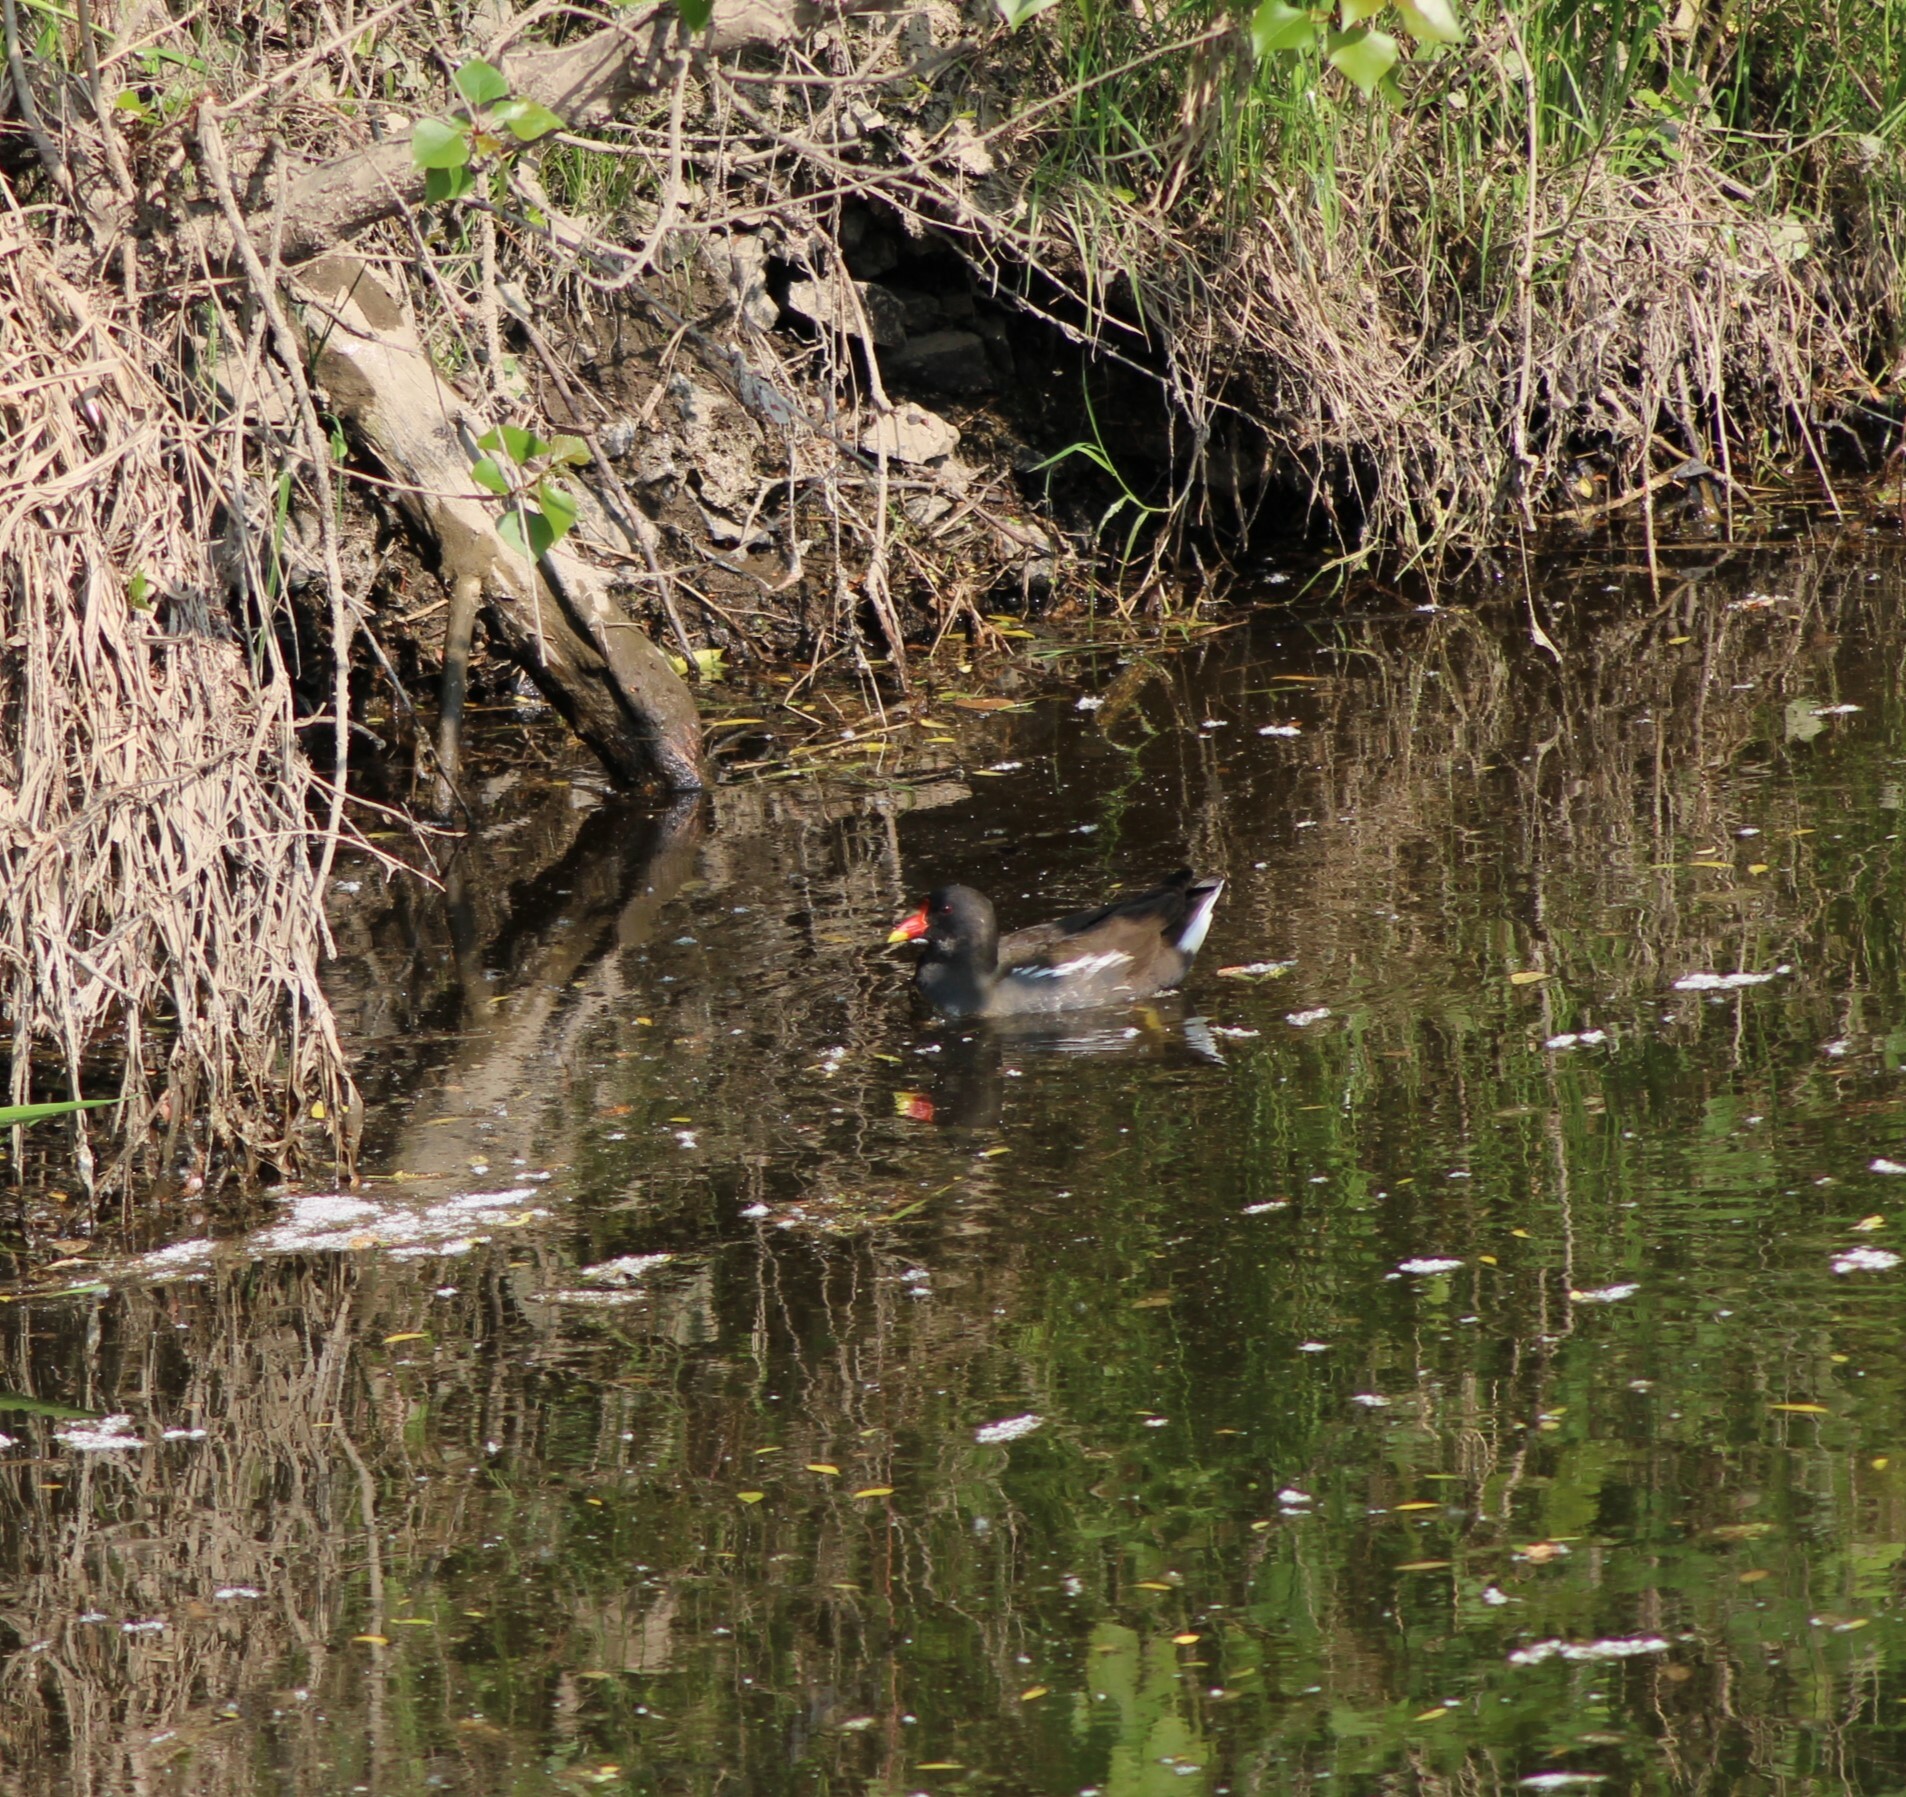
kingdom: Animalia
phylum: Chordata
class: Aves
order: Gruiformes
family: Rallidae
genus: Gallinula
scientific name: Gallinula chloropus
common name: Common moorhen
